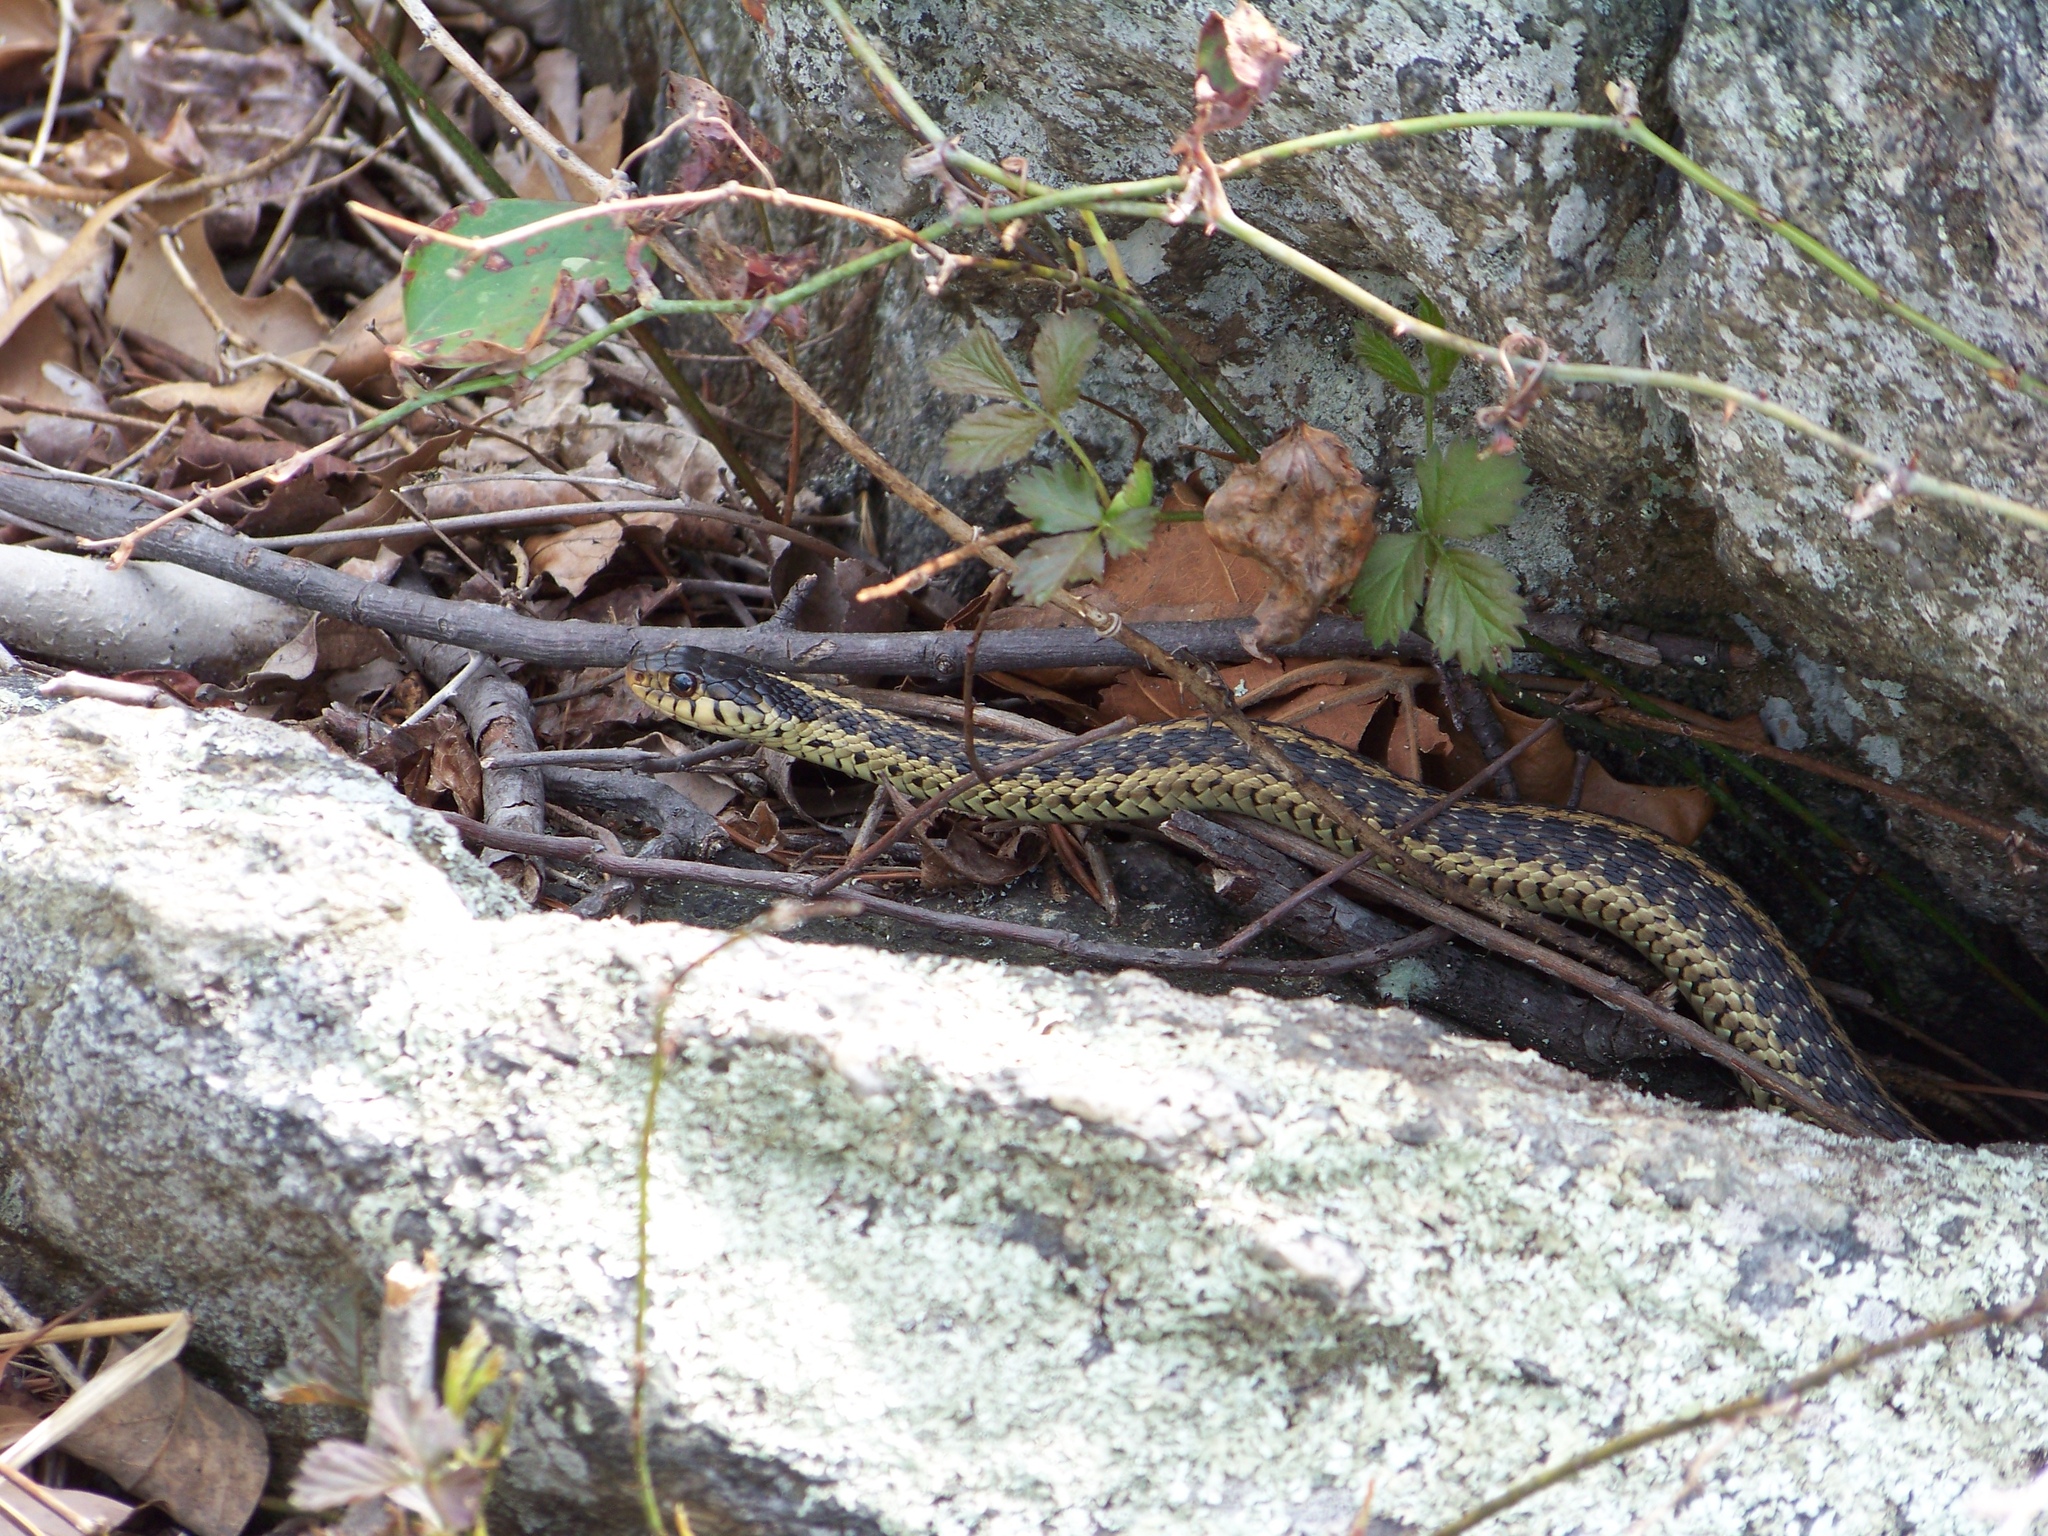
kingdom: Animalia
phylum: Chordata
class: Squamata
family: Colubridae
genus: Thamnophis
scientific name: Thamnophis sirtalis
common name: Common garter snake
